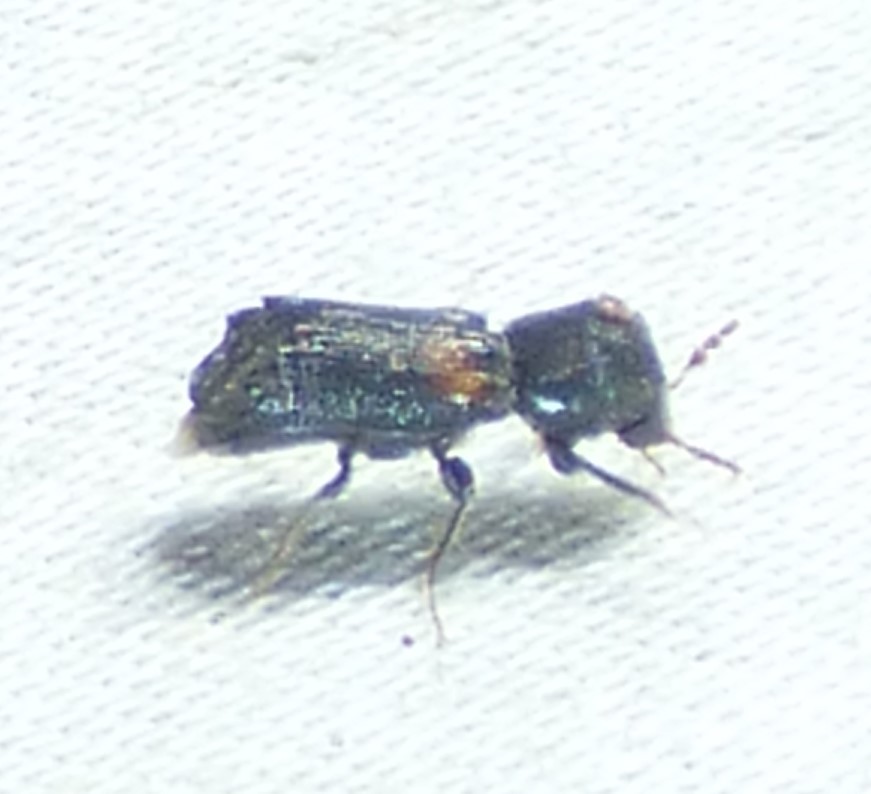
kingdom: Animalia
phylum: Arthropoda
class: Insecta
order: Coleoptera
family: Bostrichidae
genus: Xylobiops
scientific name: Xylobiops basilaris
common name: Red-shouldered bostrichid
